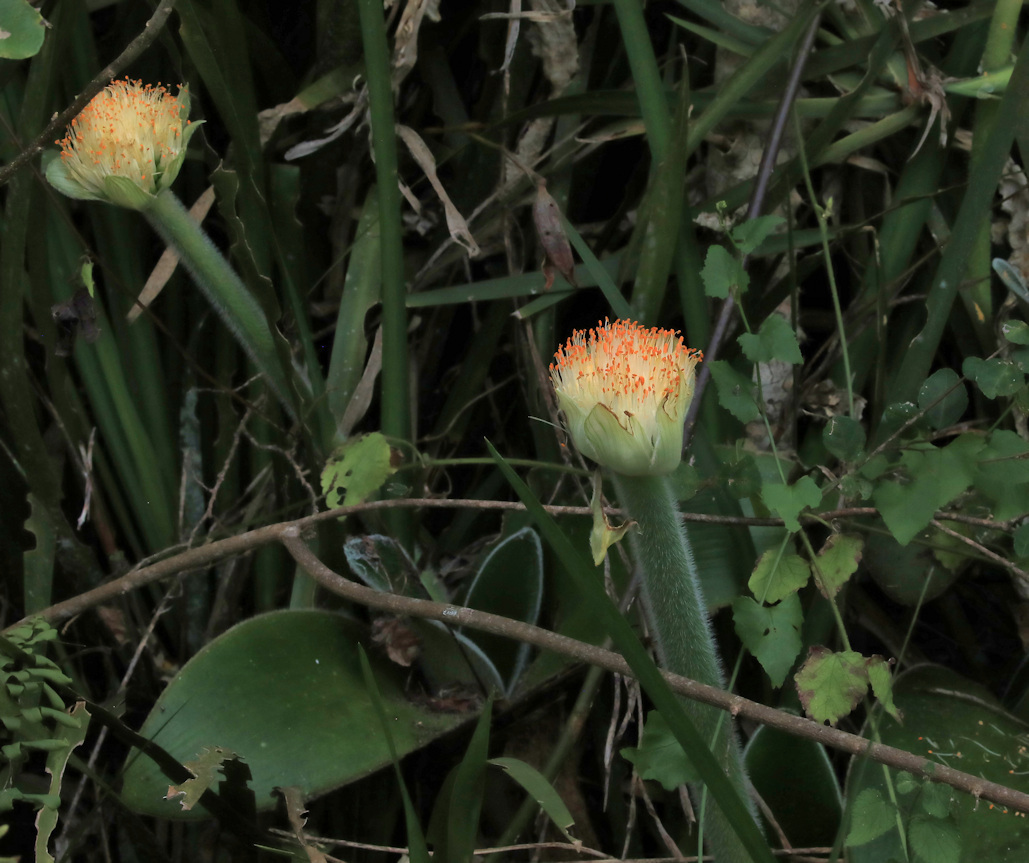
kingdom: Plantae
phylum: Tracheophyta
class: Liliopsida
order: Asparagales
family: Amaryllidaceae
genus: Haemanthus
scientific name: Haemanthus albiflos
